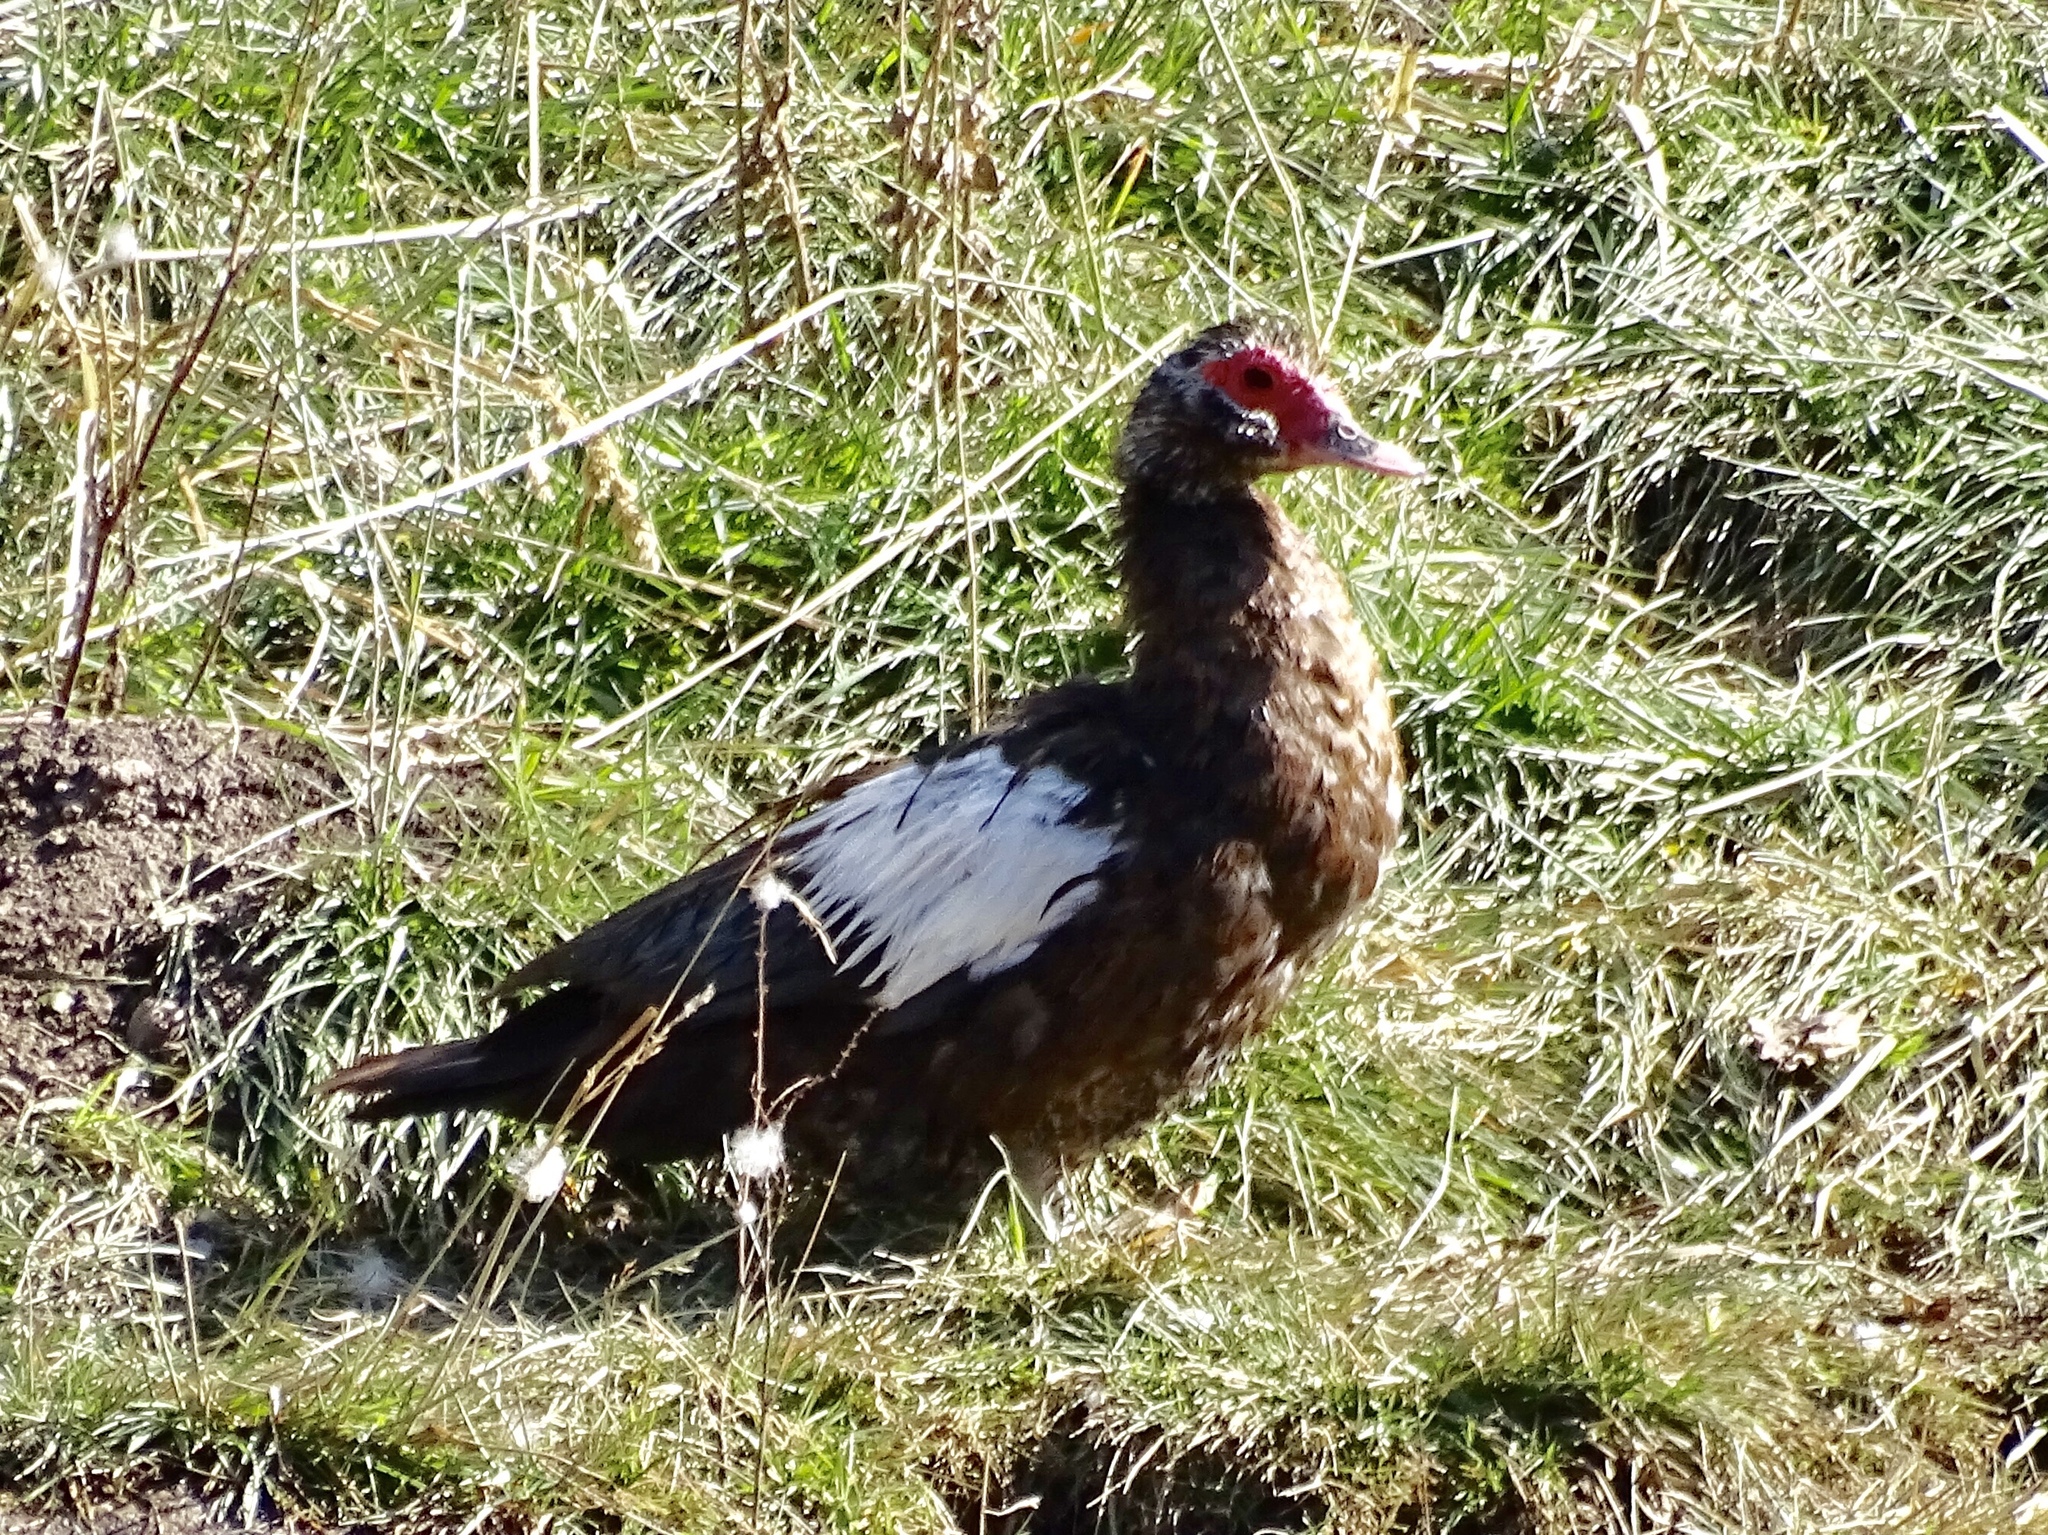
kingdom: Animalia
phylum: Chordata
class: Aves
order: Anseriformes
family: Anatidae
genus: Cairina
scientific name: Cairina moschata
